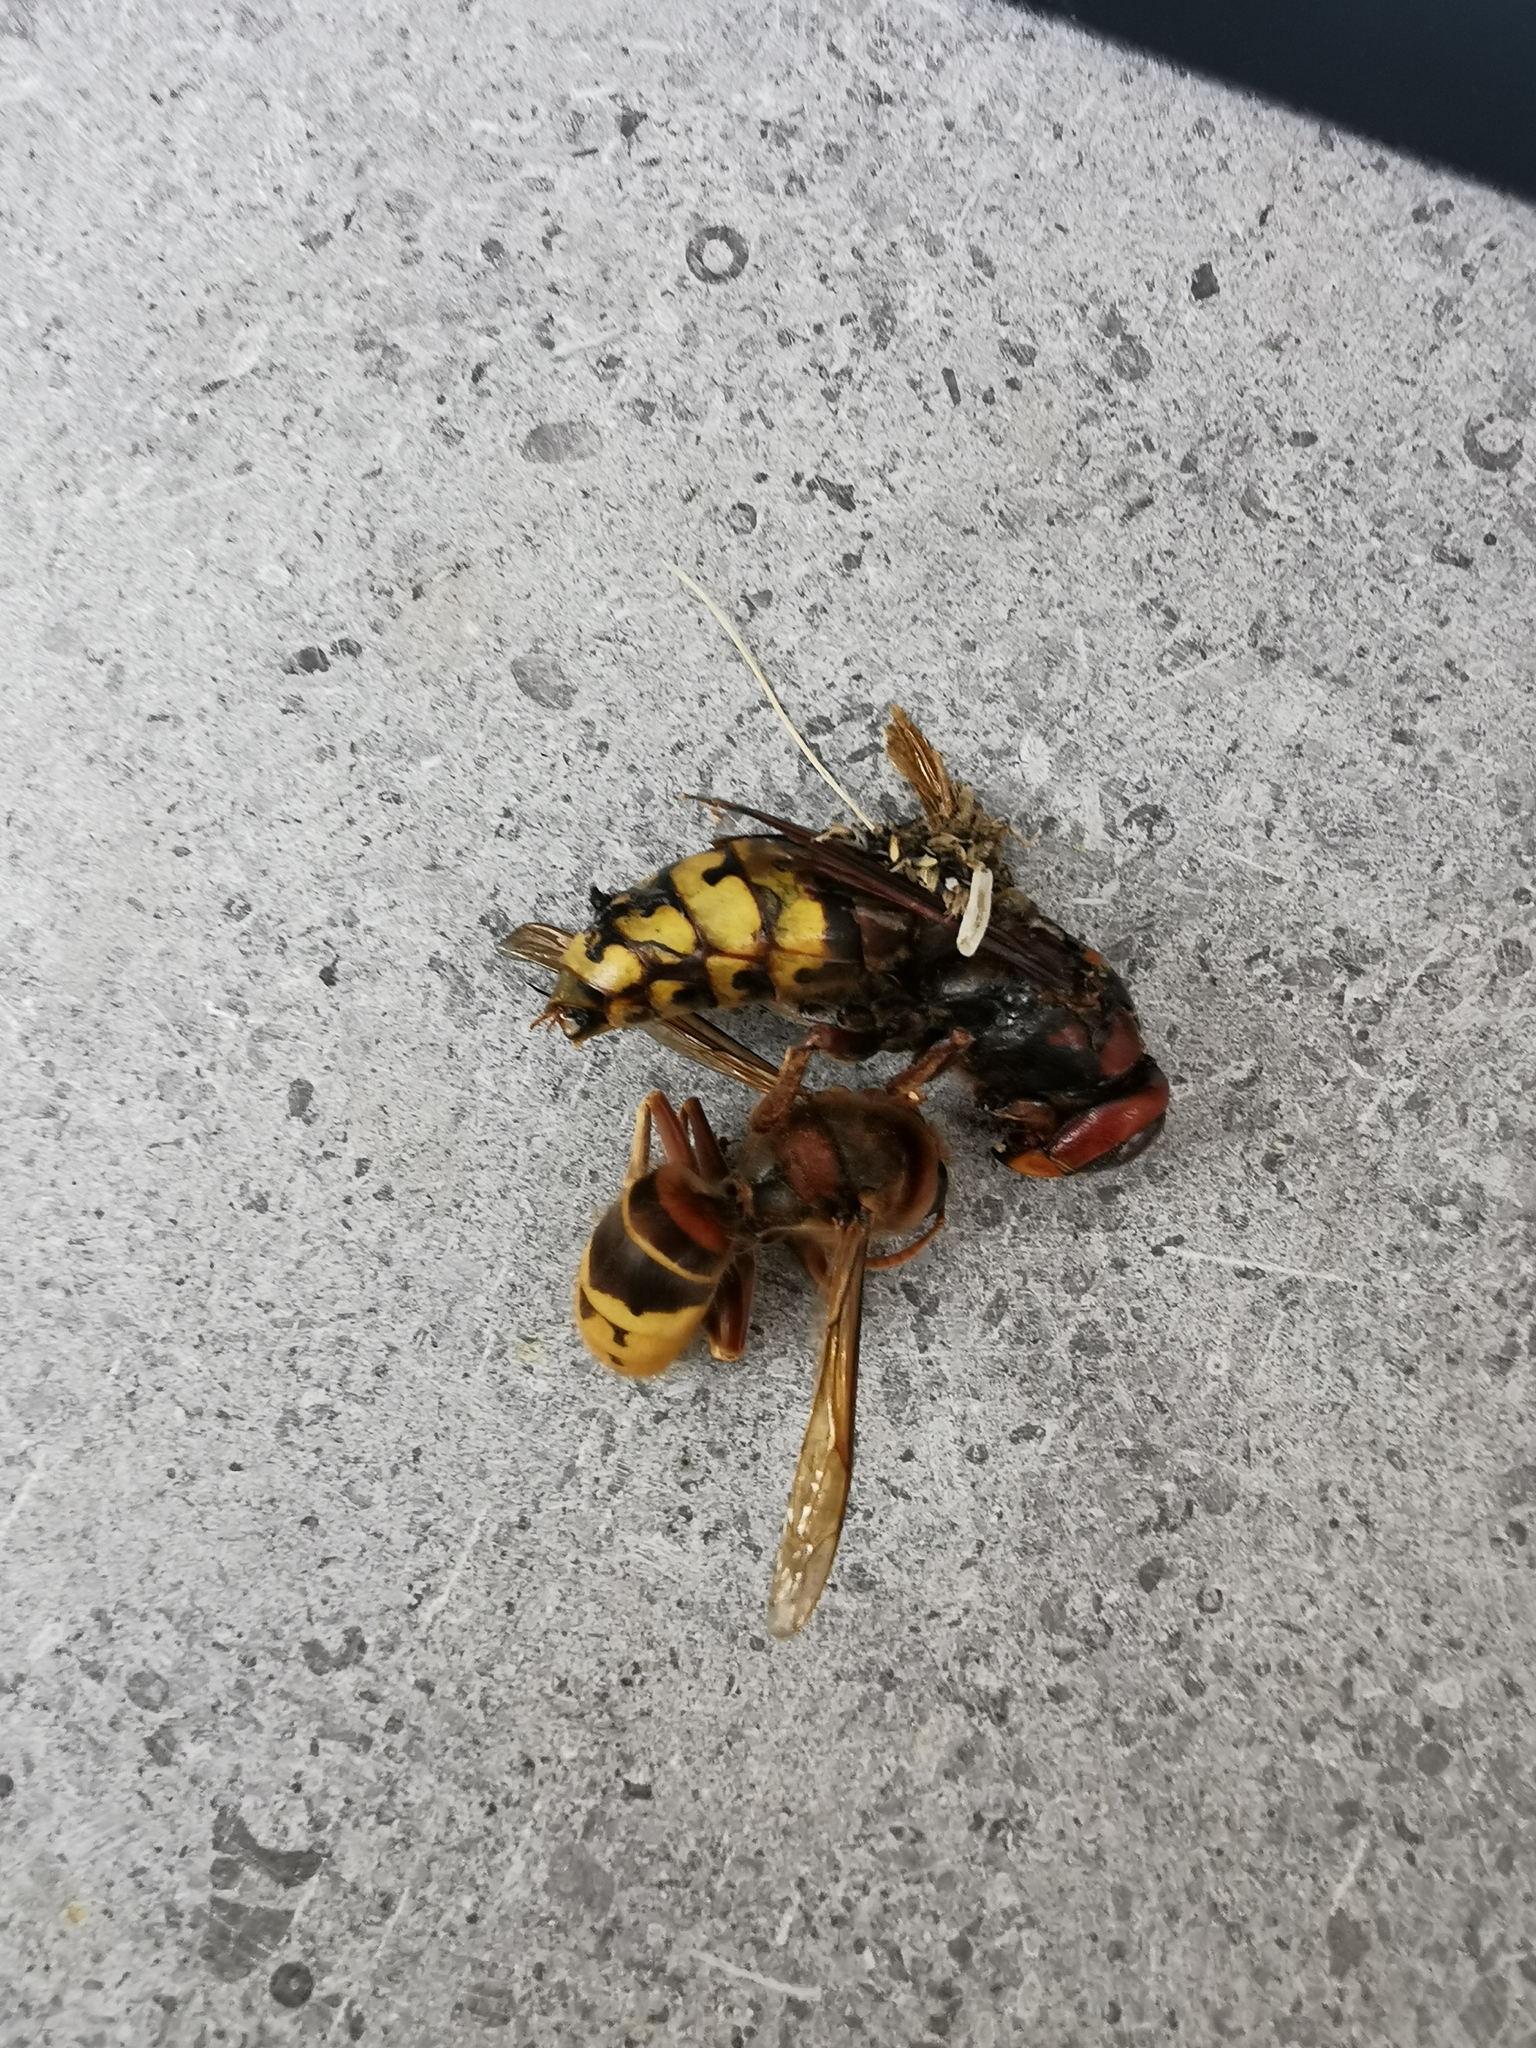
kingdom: Animalia
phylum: Arthropoda
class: Insecta
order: Hymenoptera
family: Vespidae
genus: Vespa
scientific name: Vespa crabro
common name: Hornet
